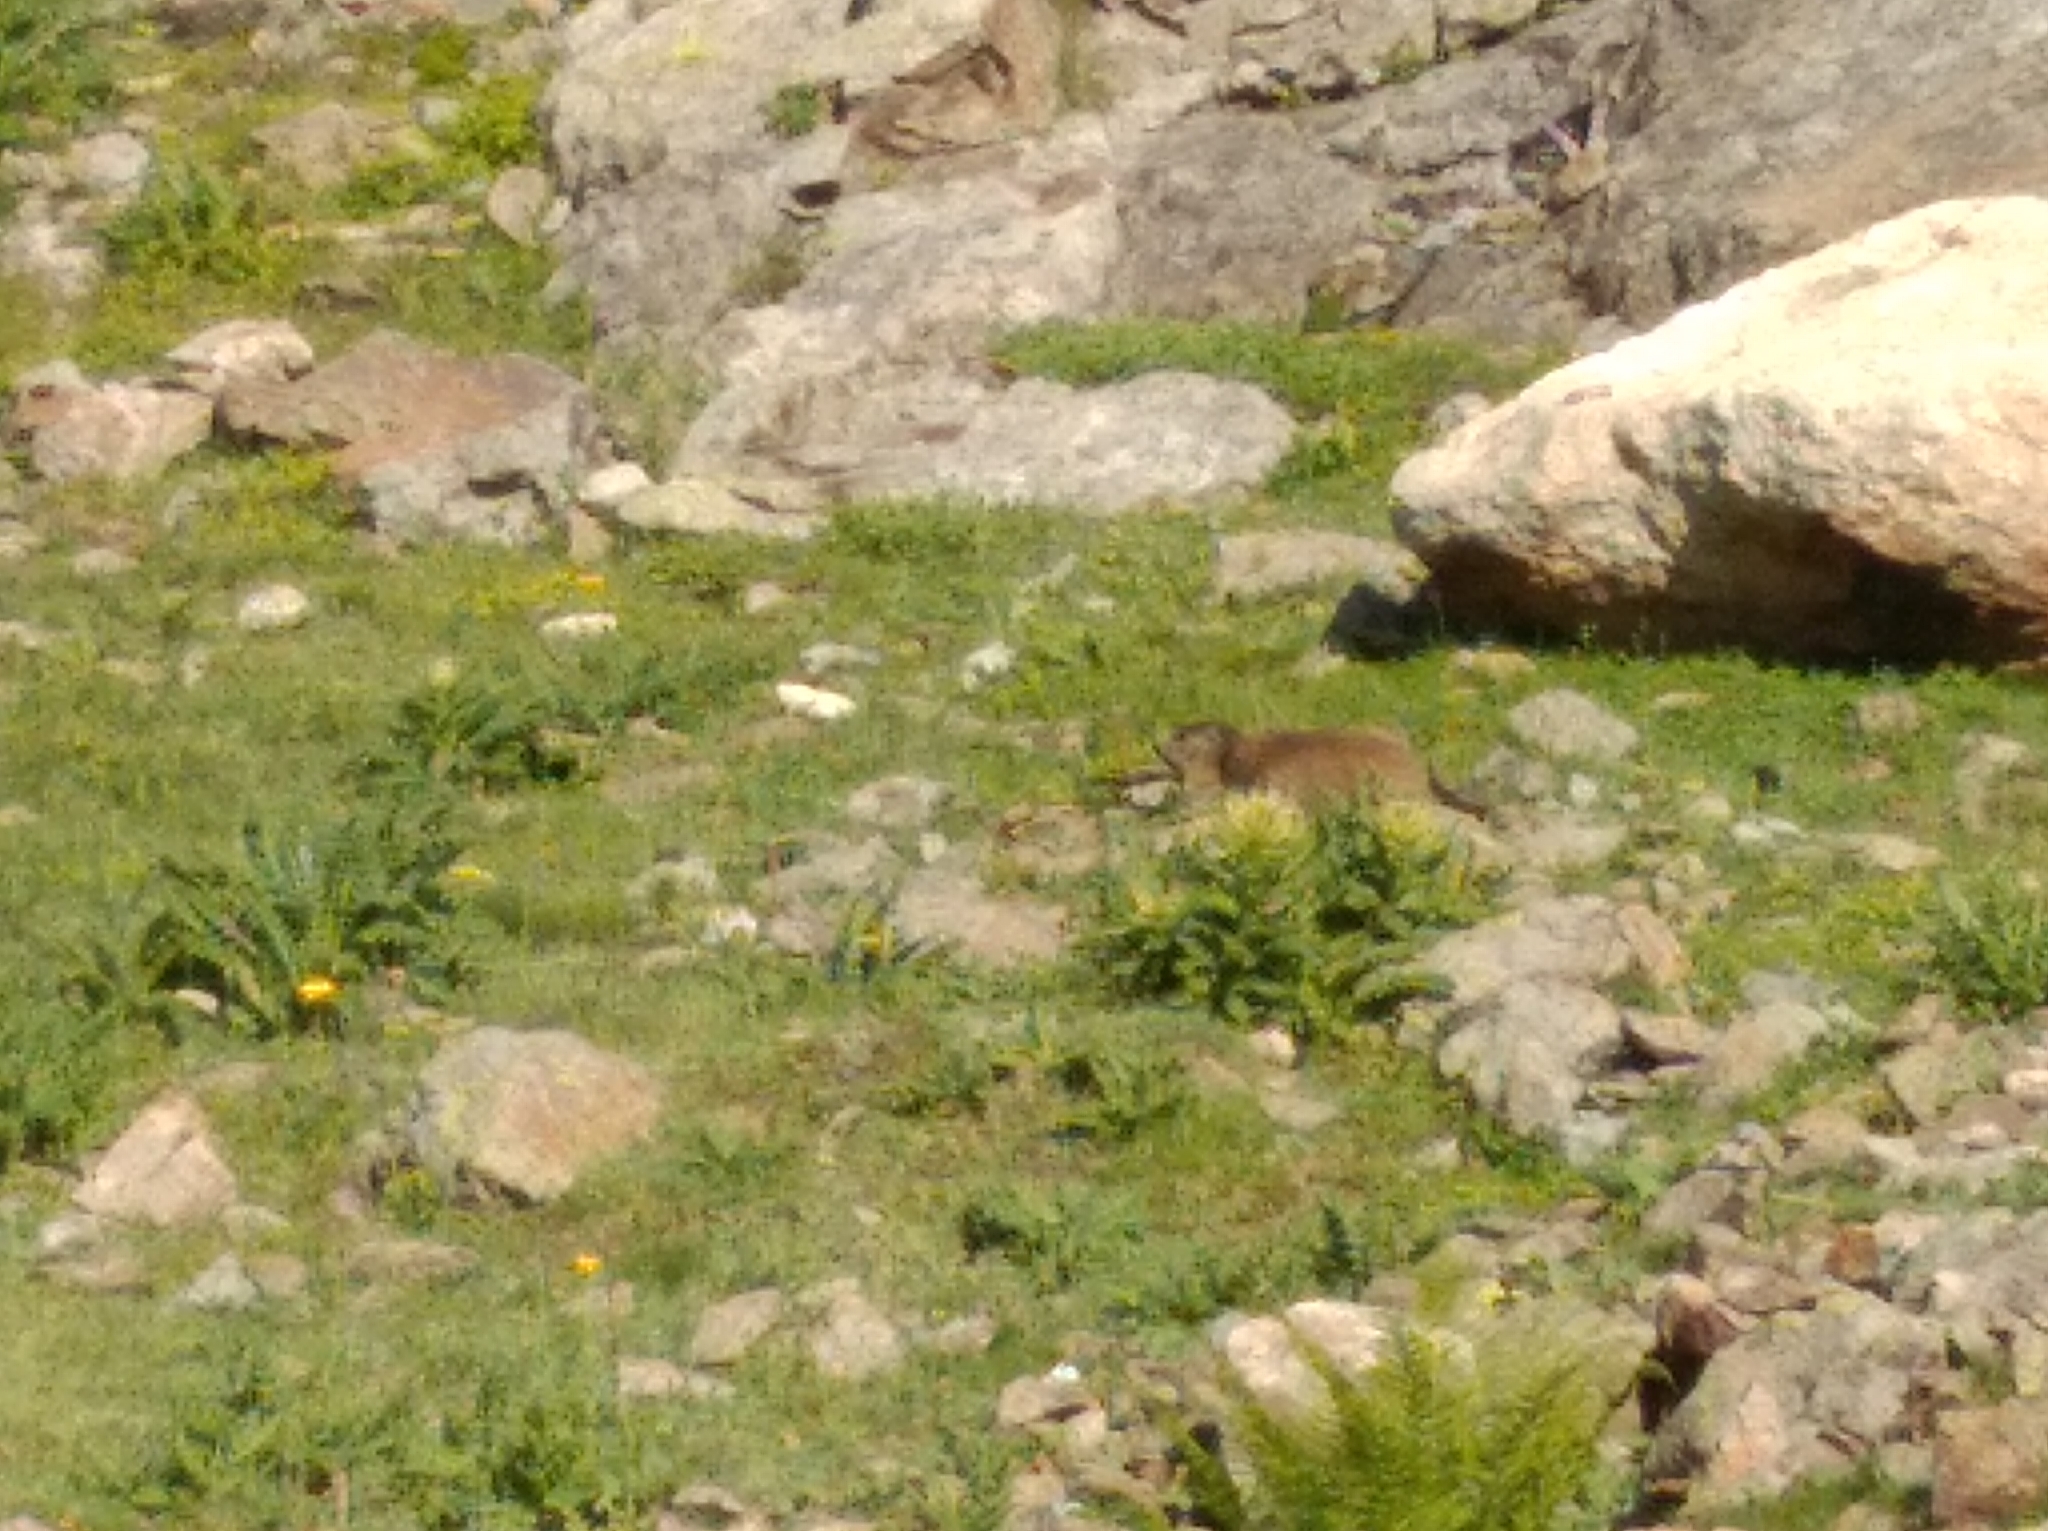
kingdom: Animalia
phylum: Chordata
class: Mammalia
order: Rodentia
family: Sciuridae
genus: Marmota
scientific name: Marmota marmota
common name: Alpine marmot
